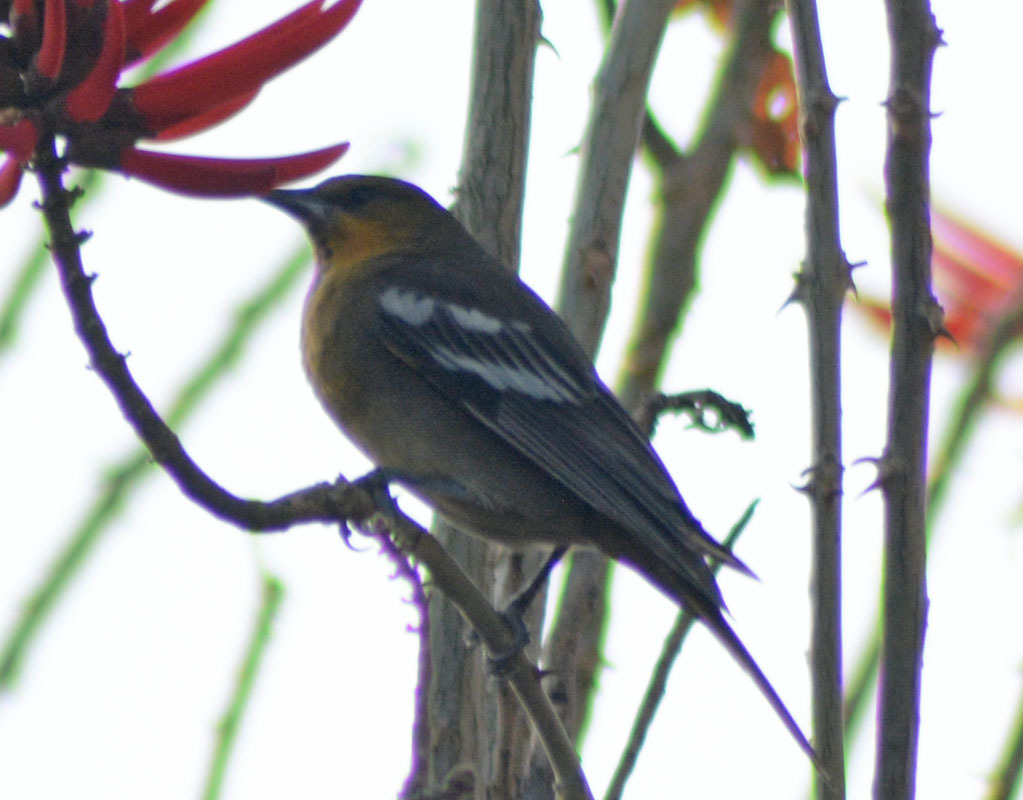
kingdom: Animalia
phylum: Chordata
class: Aves
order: Passeriformes
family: Icteridae
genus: Icterus
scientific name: Icterus abeillei
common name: Black-backed oriole
